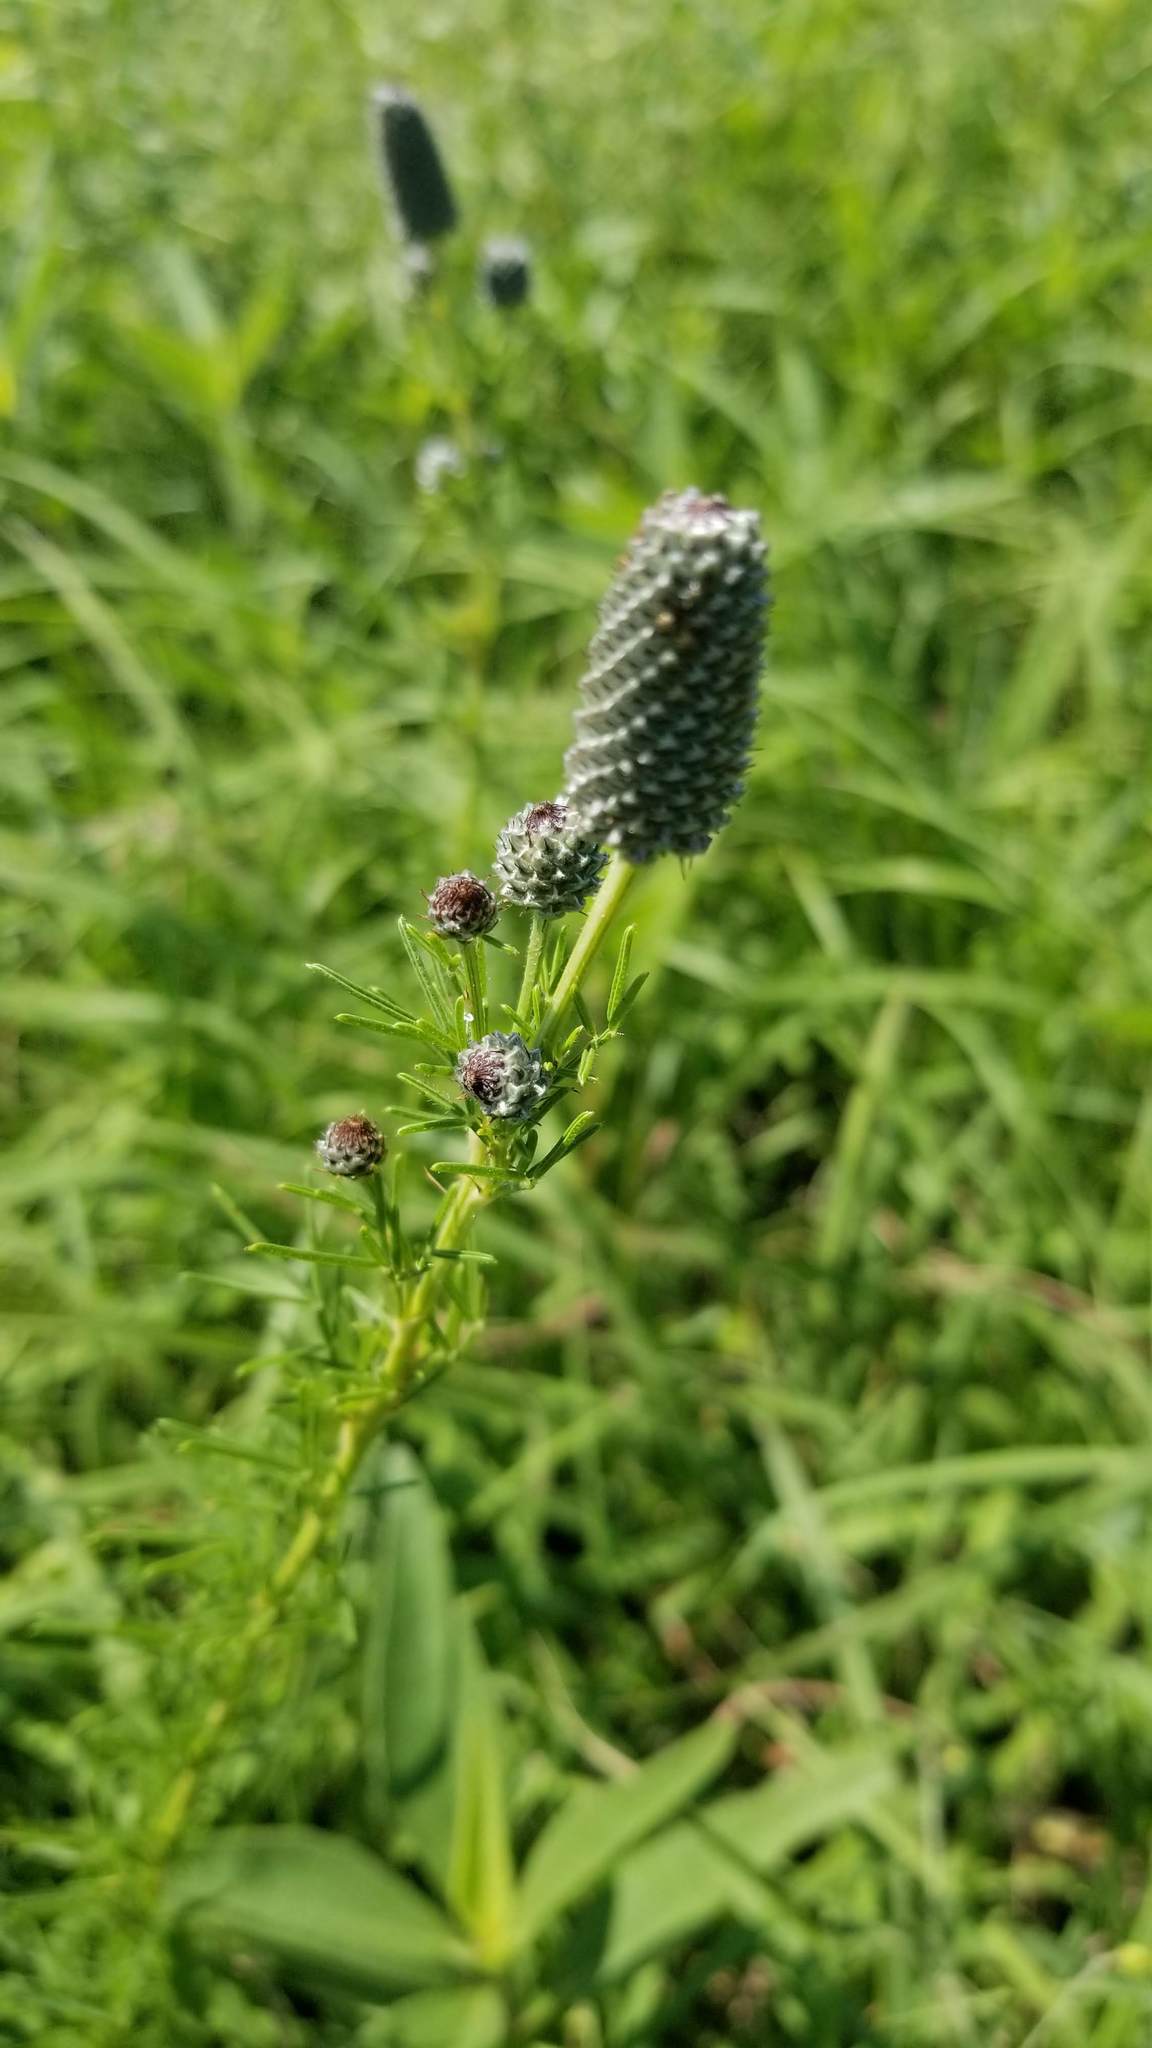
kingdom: Plantae
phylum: Tracheophyta
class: Magnoliopsida
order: Fabales
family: Fabaceae
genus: Dalea
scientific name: Dalea purpurea
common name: Purple prairie-clover
